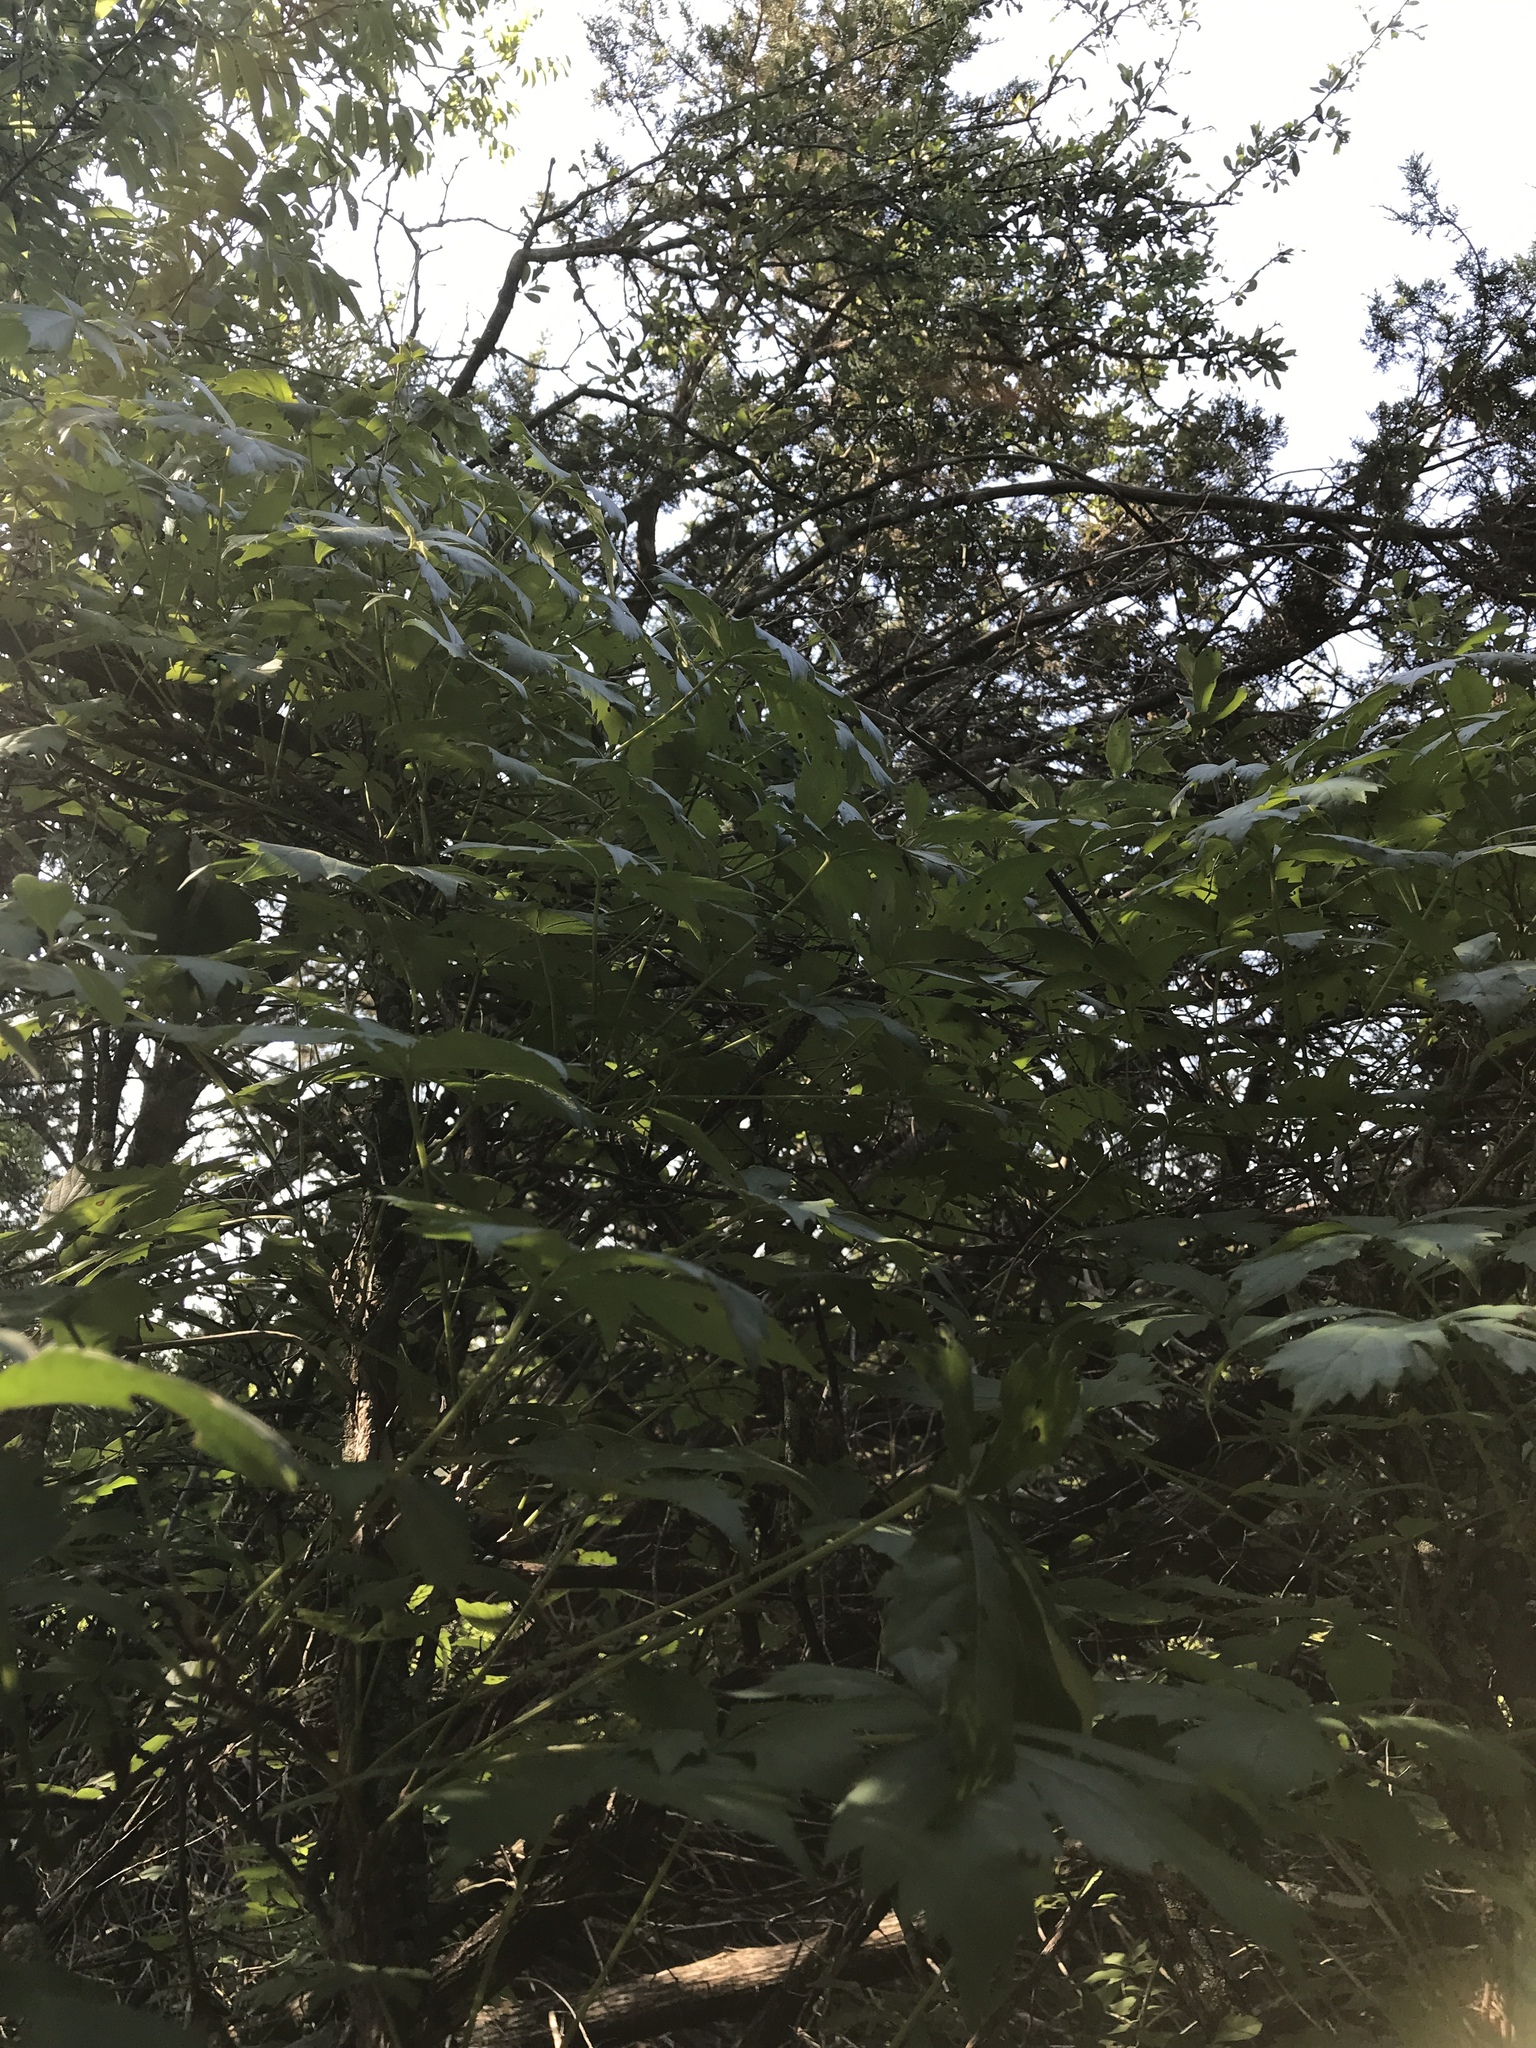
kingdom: Plantae
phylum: Tracheophyta
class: Magnoliopsida
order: Vitales
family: Vitaceae
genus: Parthenocissus
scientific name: Parthenocissus quinquefolia
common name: Virginia-creeper
